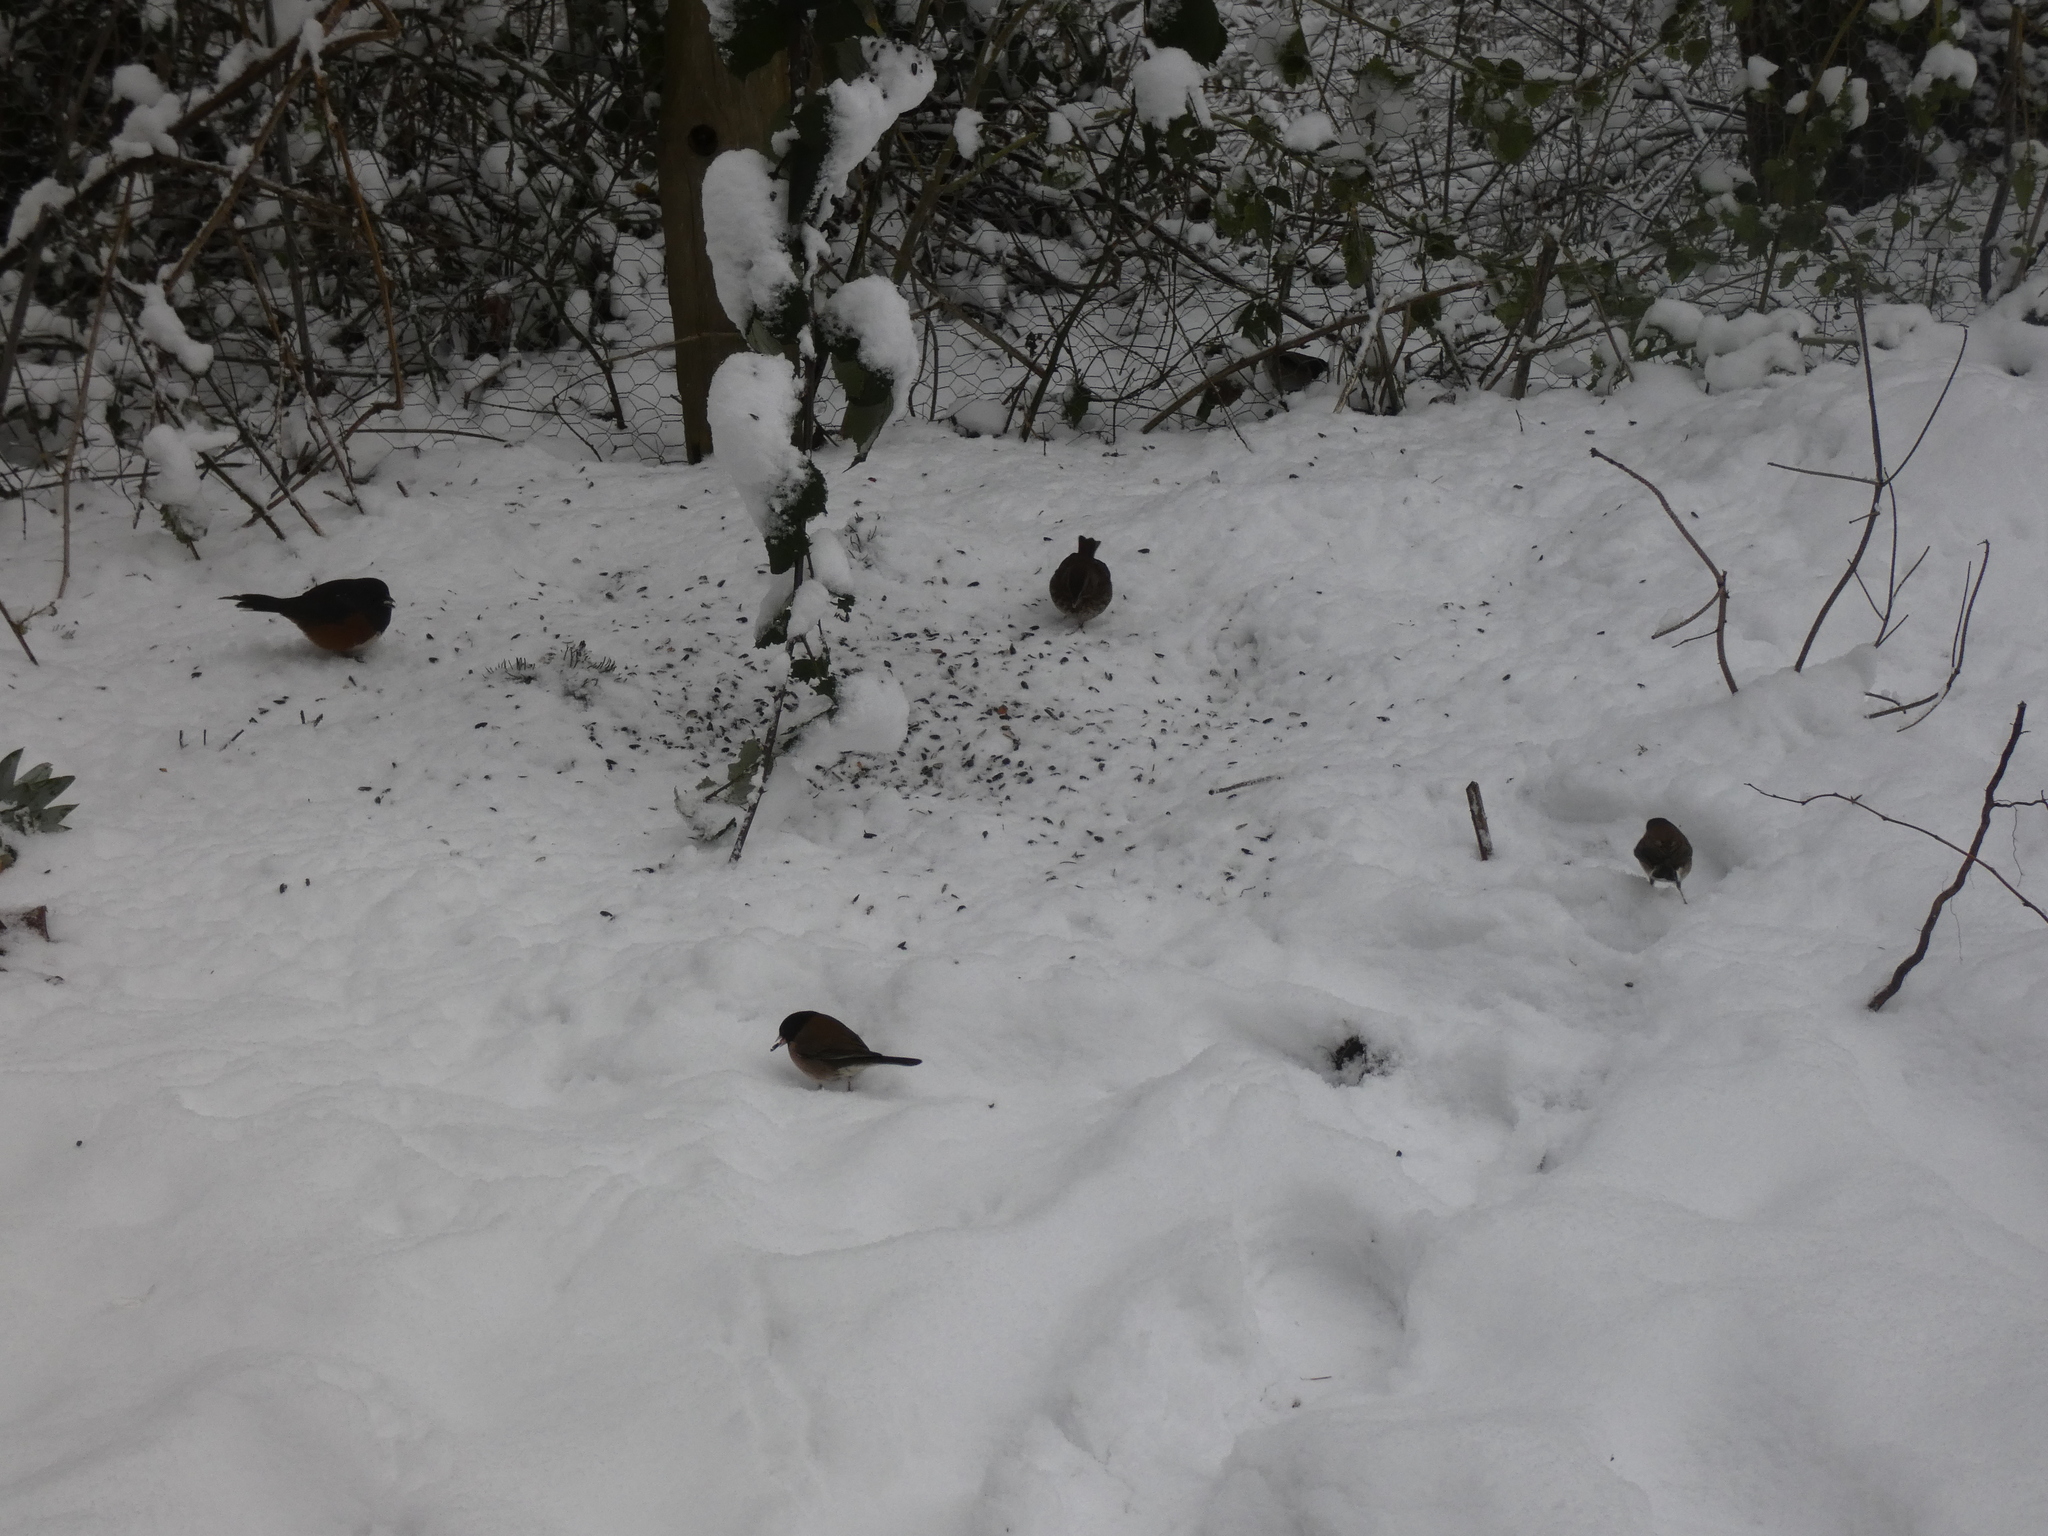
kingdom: Animalia
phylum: Chordata
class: Aves
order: Passeriformes
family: Passerellidae
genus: Junco
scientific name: Junco hyemalis
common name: Dark-eyed junco
